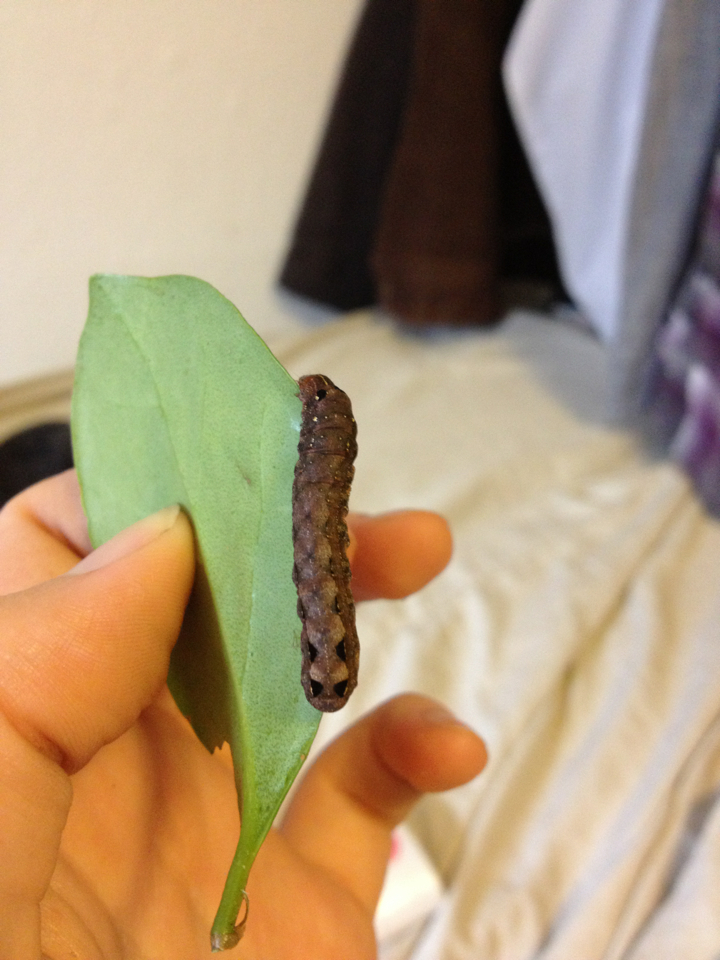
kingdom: Animalia
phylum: Arthropoda
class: Insecta
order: Lepidoptera
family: Noctuidae
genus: Spodoptera
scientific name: Spodoptera dolichos
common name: Sweetpotato armyworm
